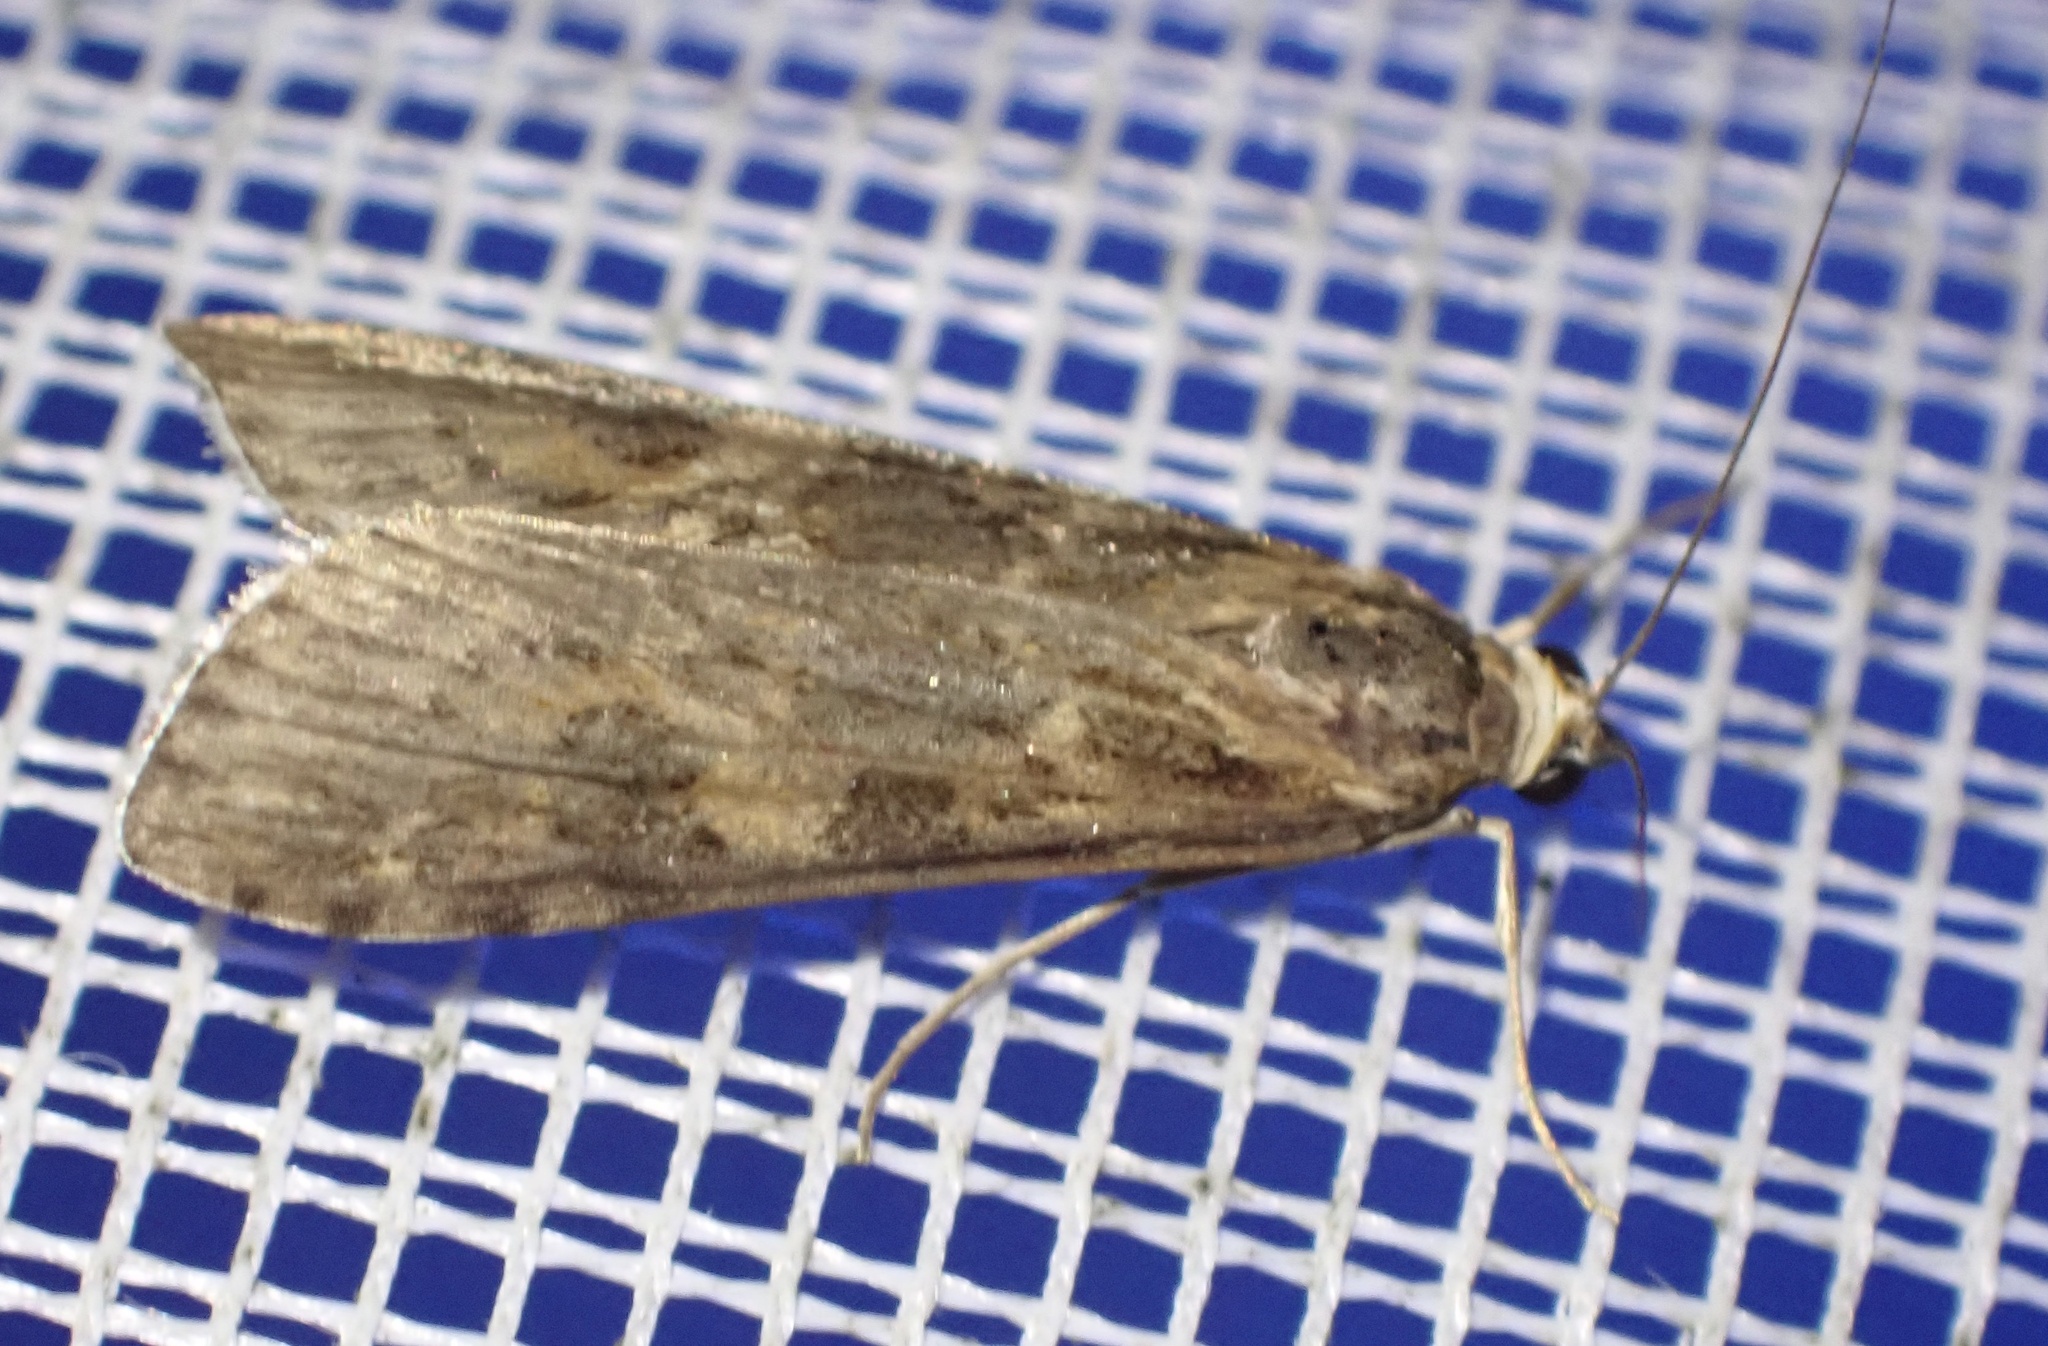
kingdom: Animalia
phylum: Arthropoda
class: Insecta
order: Lepidoptera
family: Crambidae
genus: Nomophila
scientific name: Nomophila noctuella
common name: Rush veneer
